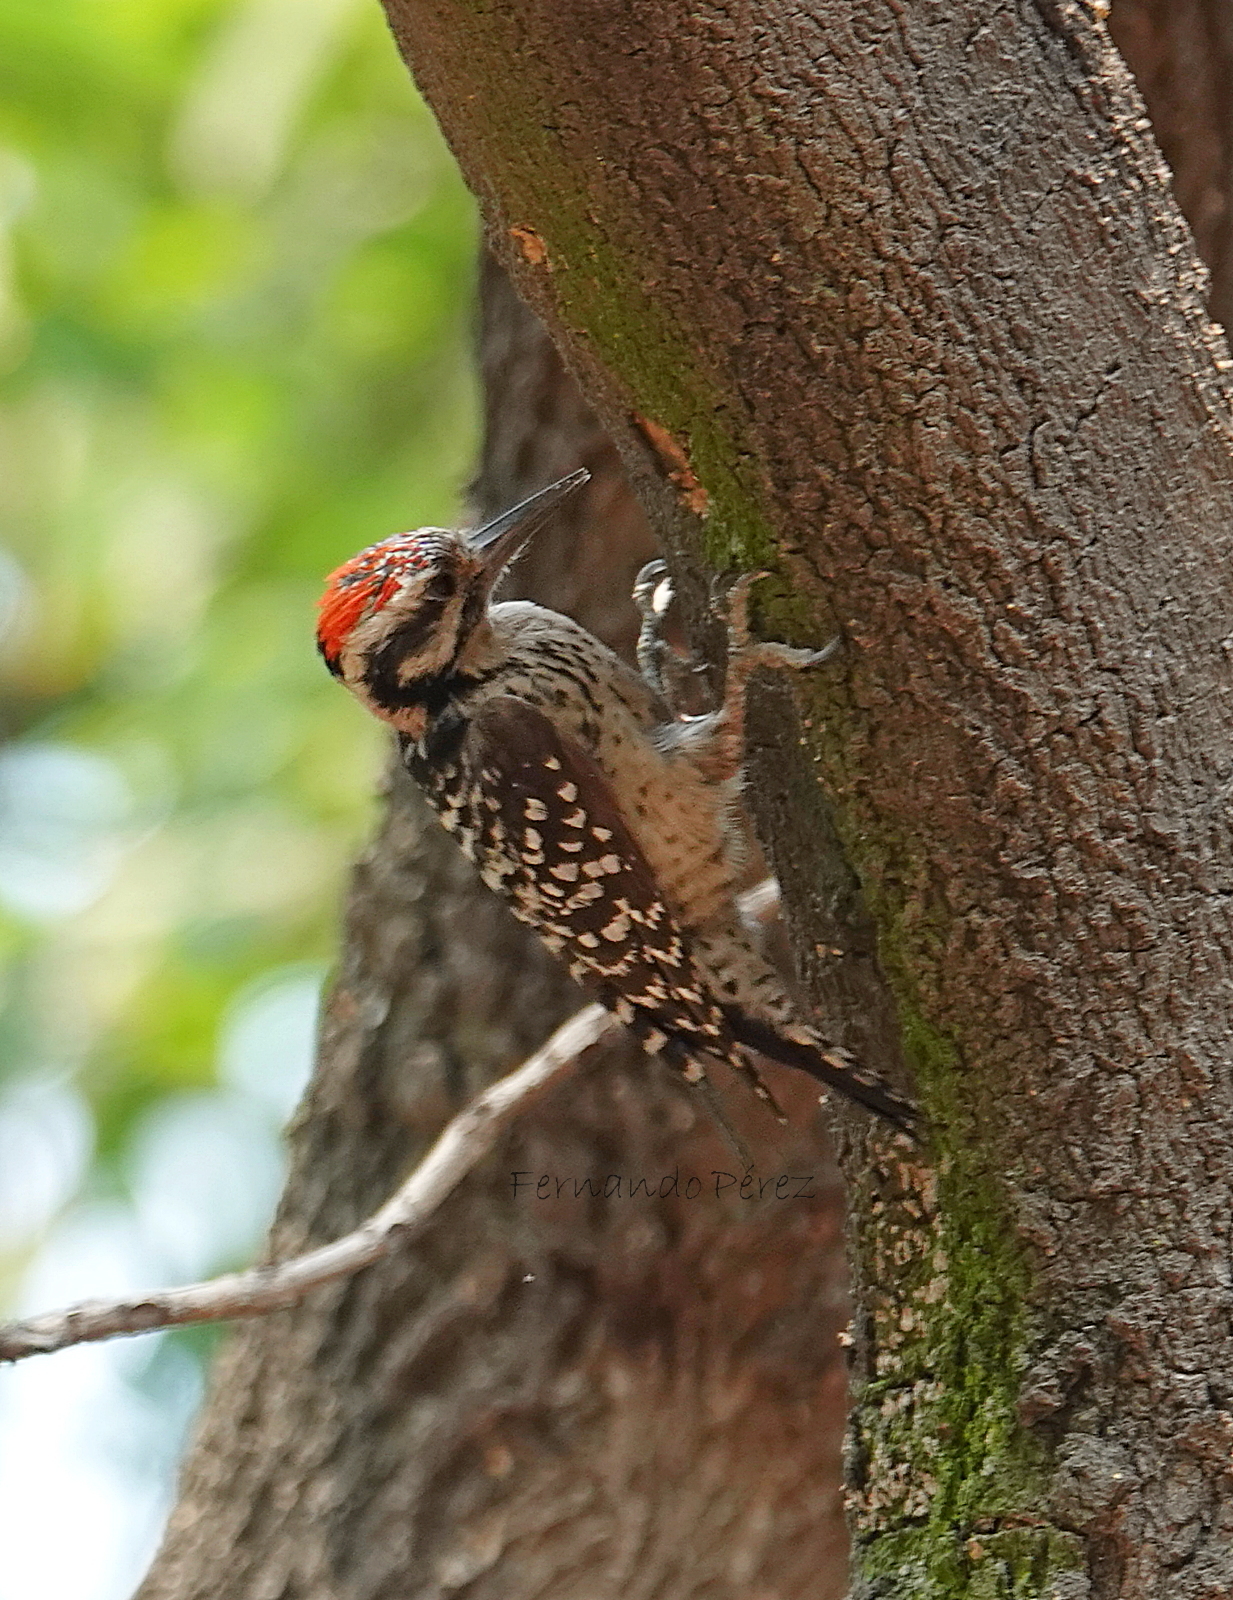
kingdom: Animalia
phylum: Chordata
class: Aves
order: Piciformes
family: Picidae
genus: Dryobates
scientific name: Dryobates scalaris
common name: Ladder-backed woodpecker
